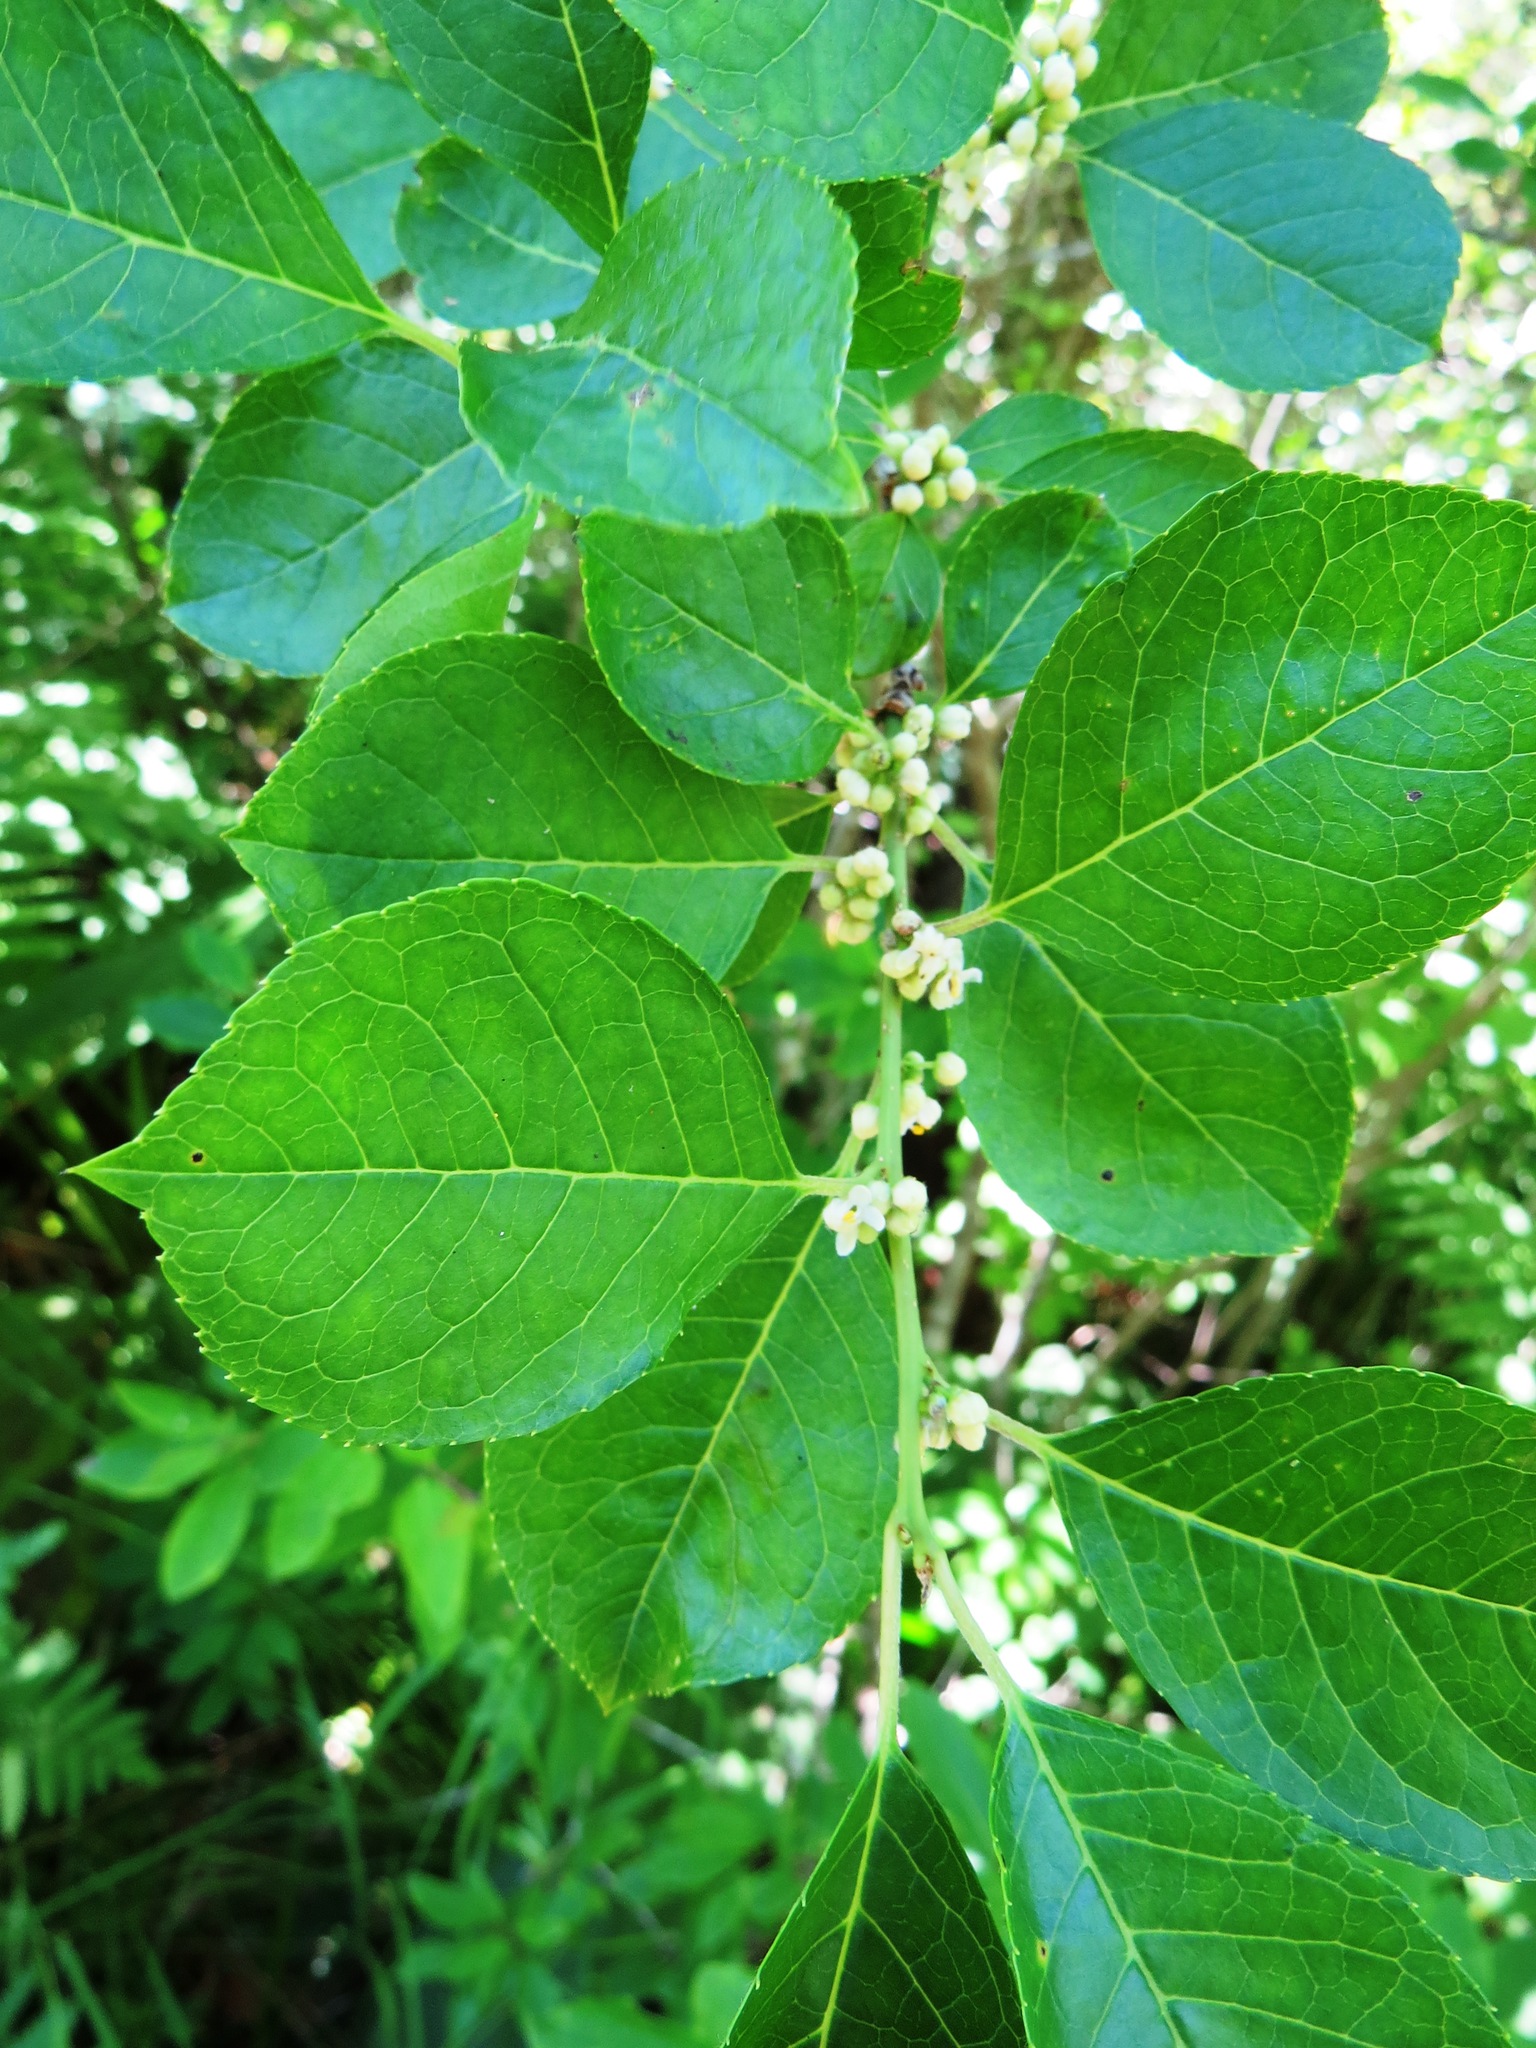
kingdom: Plantae
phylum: Tracheophyta
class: Magnoliopsida
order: Aquifoliales
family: Aquifoliaceae
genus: Ilex
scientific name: Ilex verticillata
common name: Virginia winterberry
